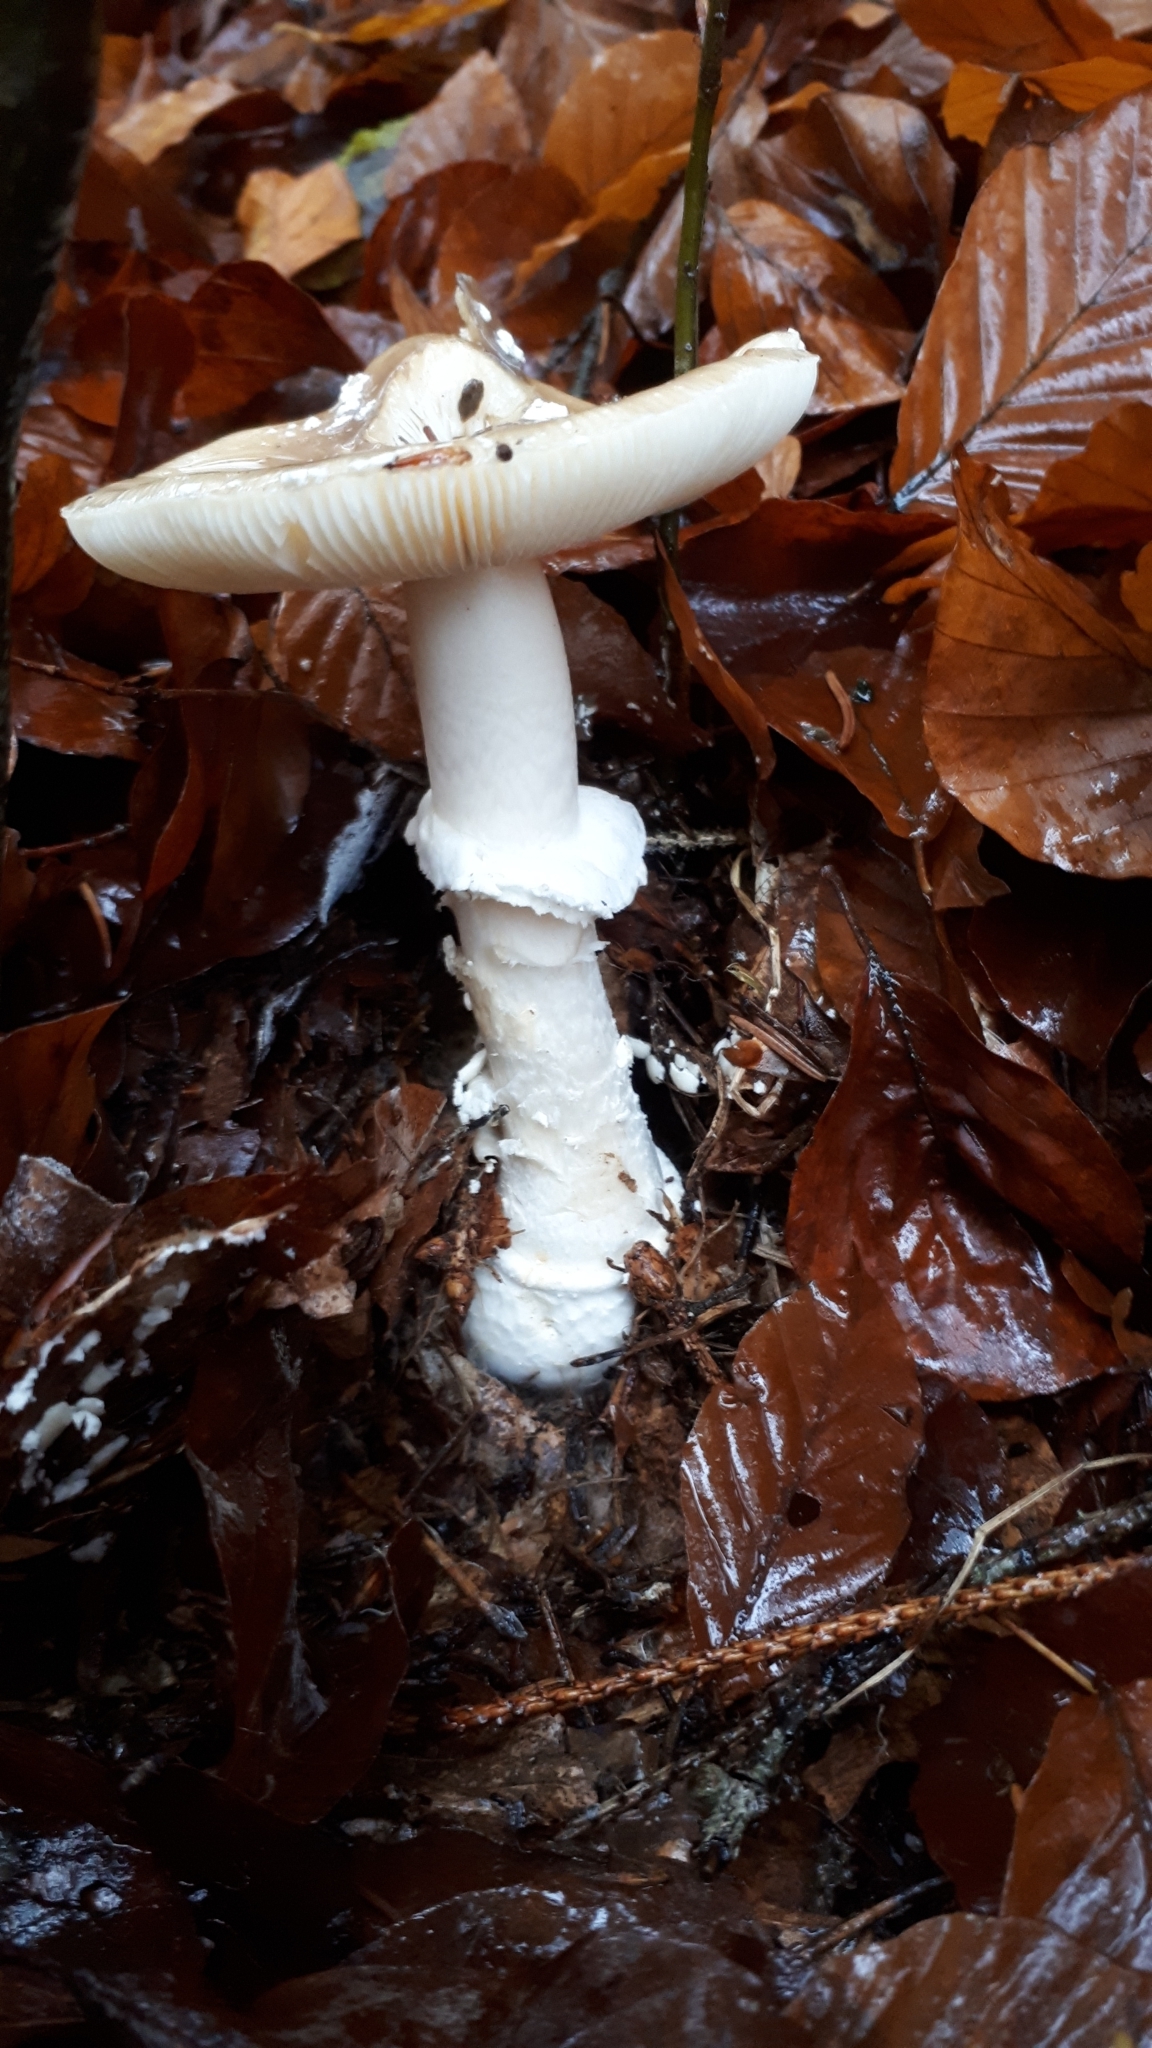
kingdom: Fungi
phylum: Basidiomycota
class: Agaricomycetes
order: Agaricales
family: Amanitaceae
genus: Amanita
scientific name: Amanita pantherina
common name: Panthercap
